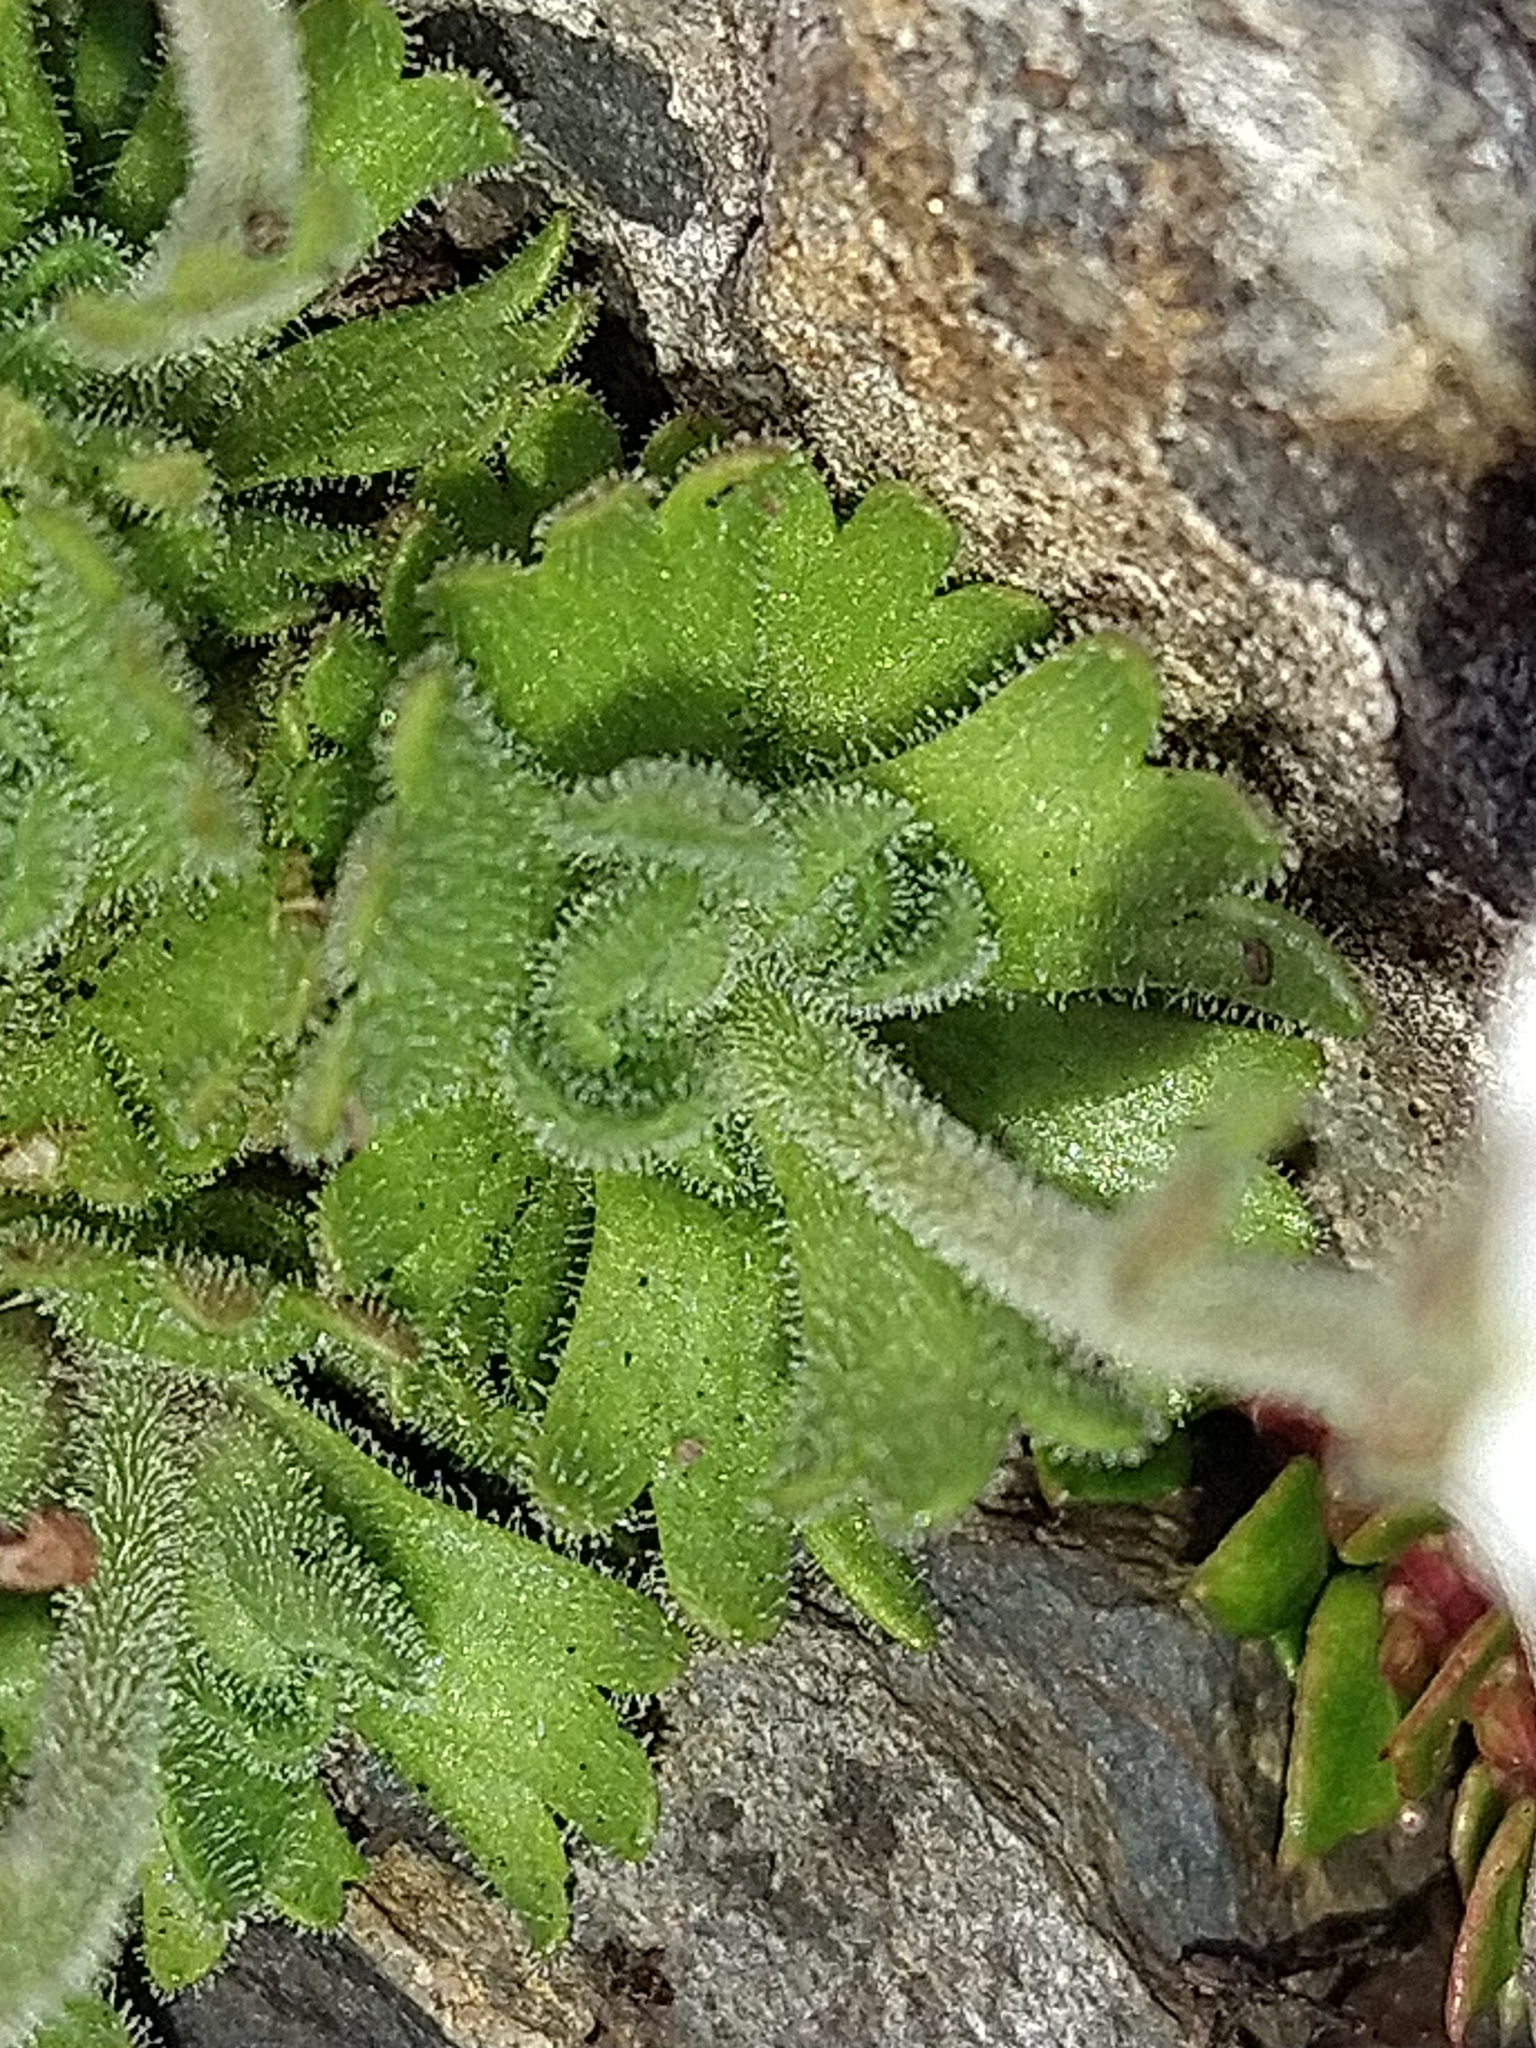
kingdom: Plantae
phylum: Tracheophyta
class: Magnoliopsida
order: Saxifragales
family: Saxifragaceae
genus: Saxifraga
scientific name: Saxifraga magellanica
